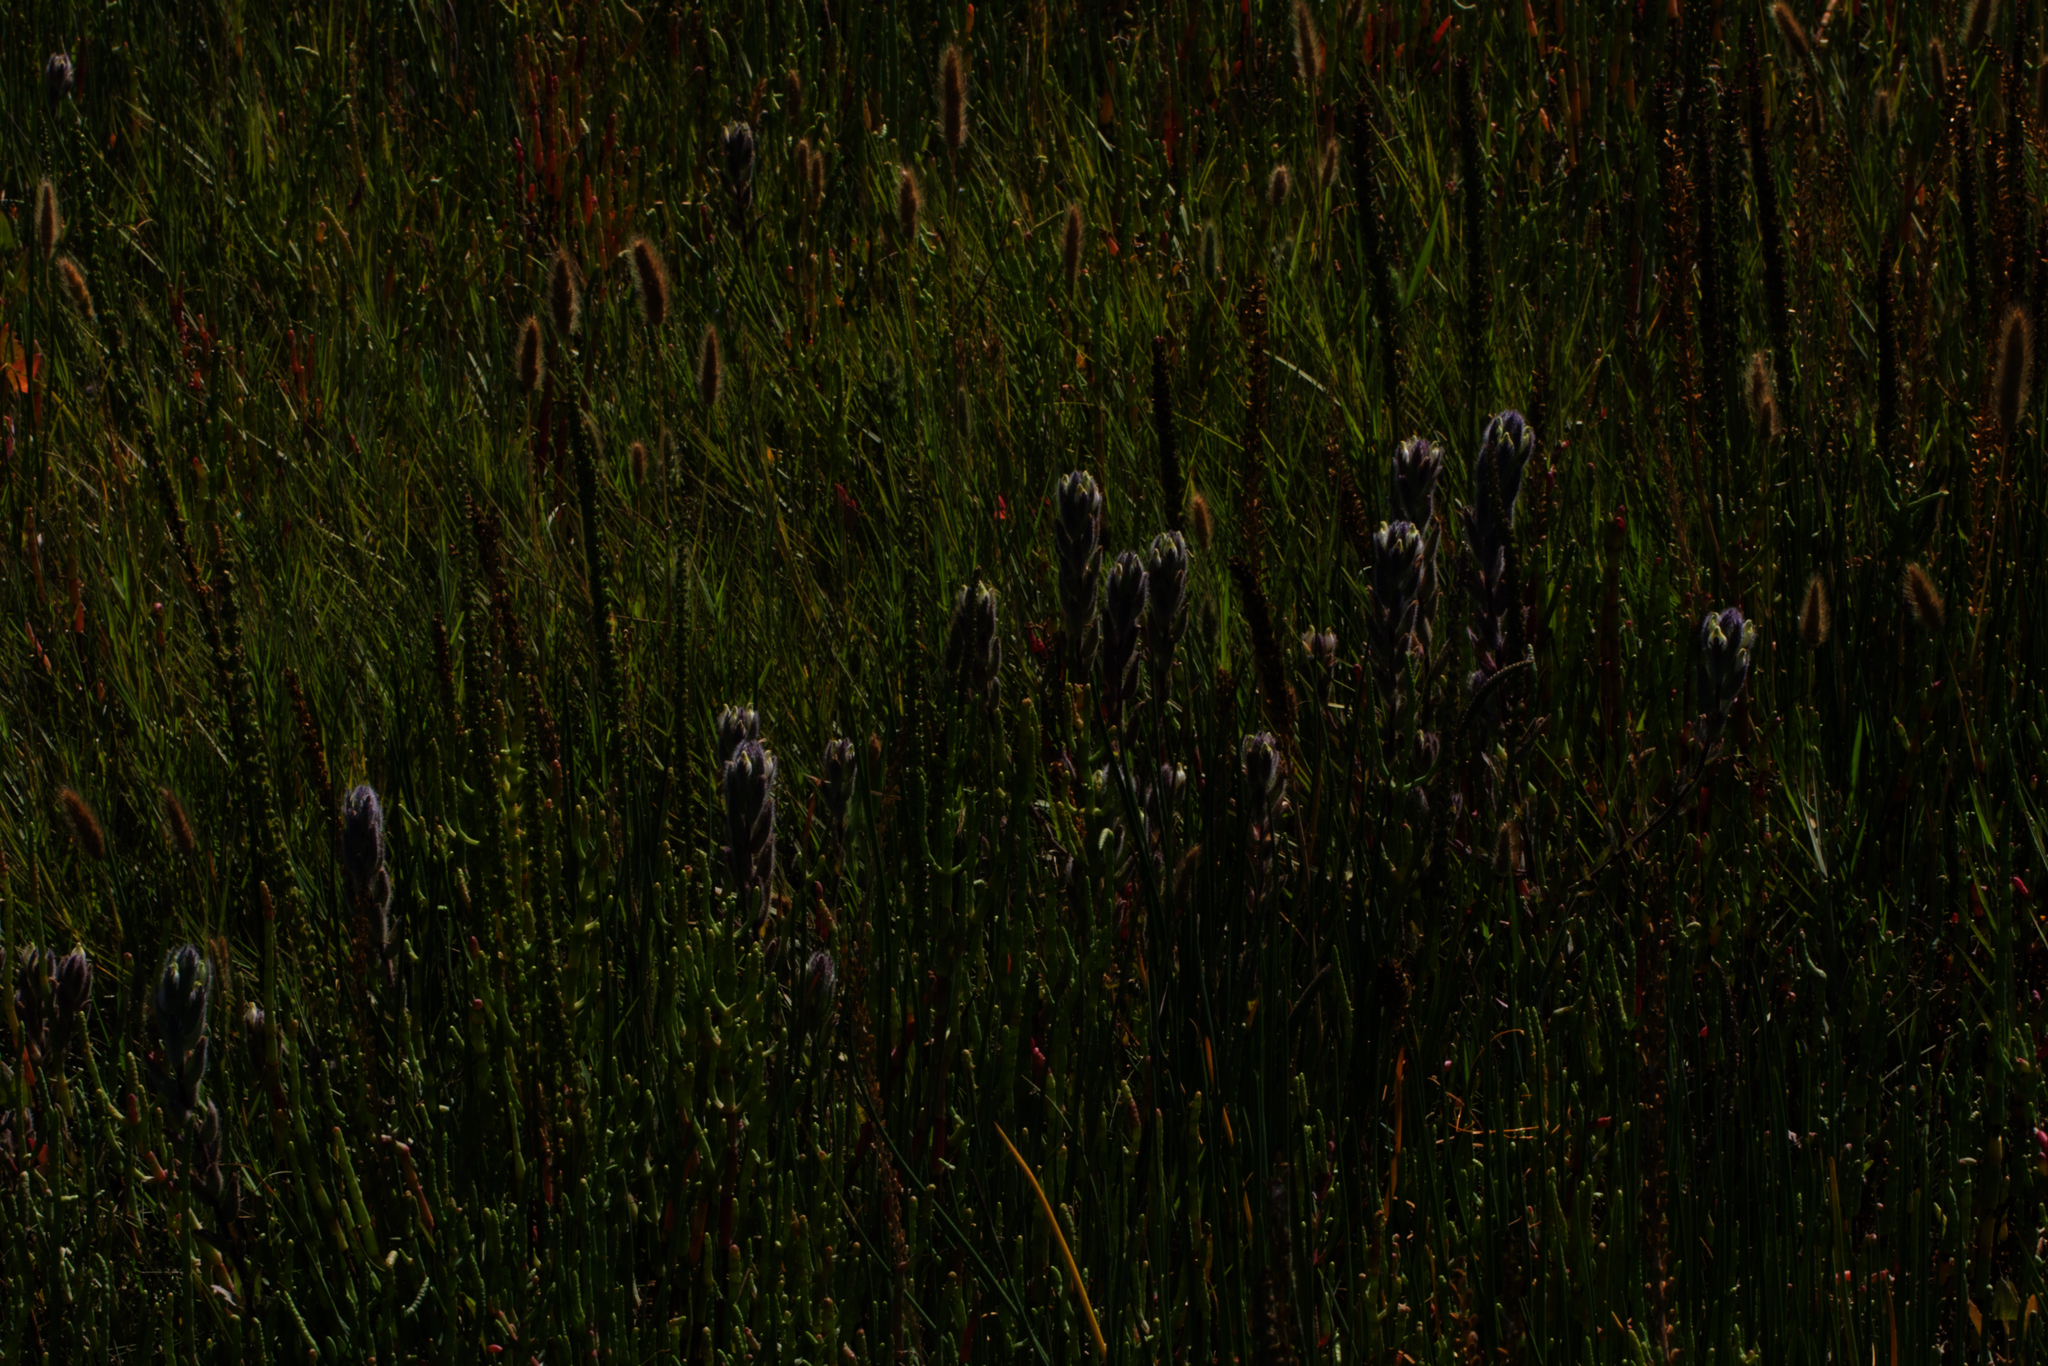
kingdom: Plantae
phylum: Tracheophyta
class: Magnoliopsida
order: Lamiales
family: Orobanchaceae
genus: Chloropyron
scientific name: Chloropyron molle
